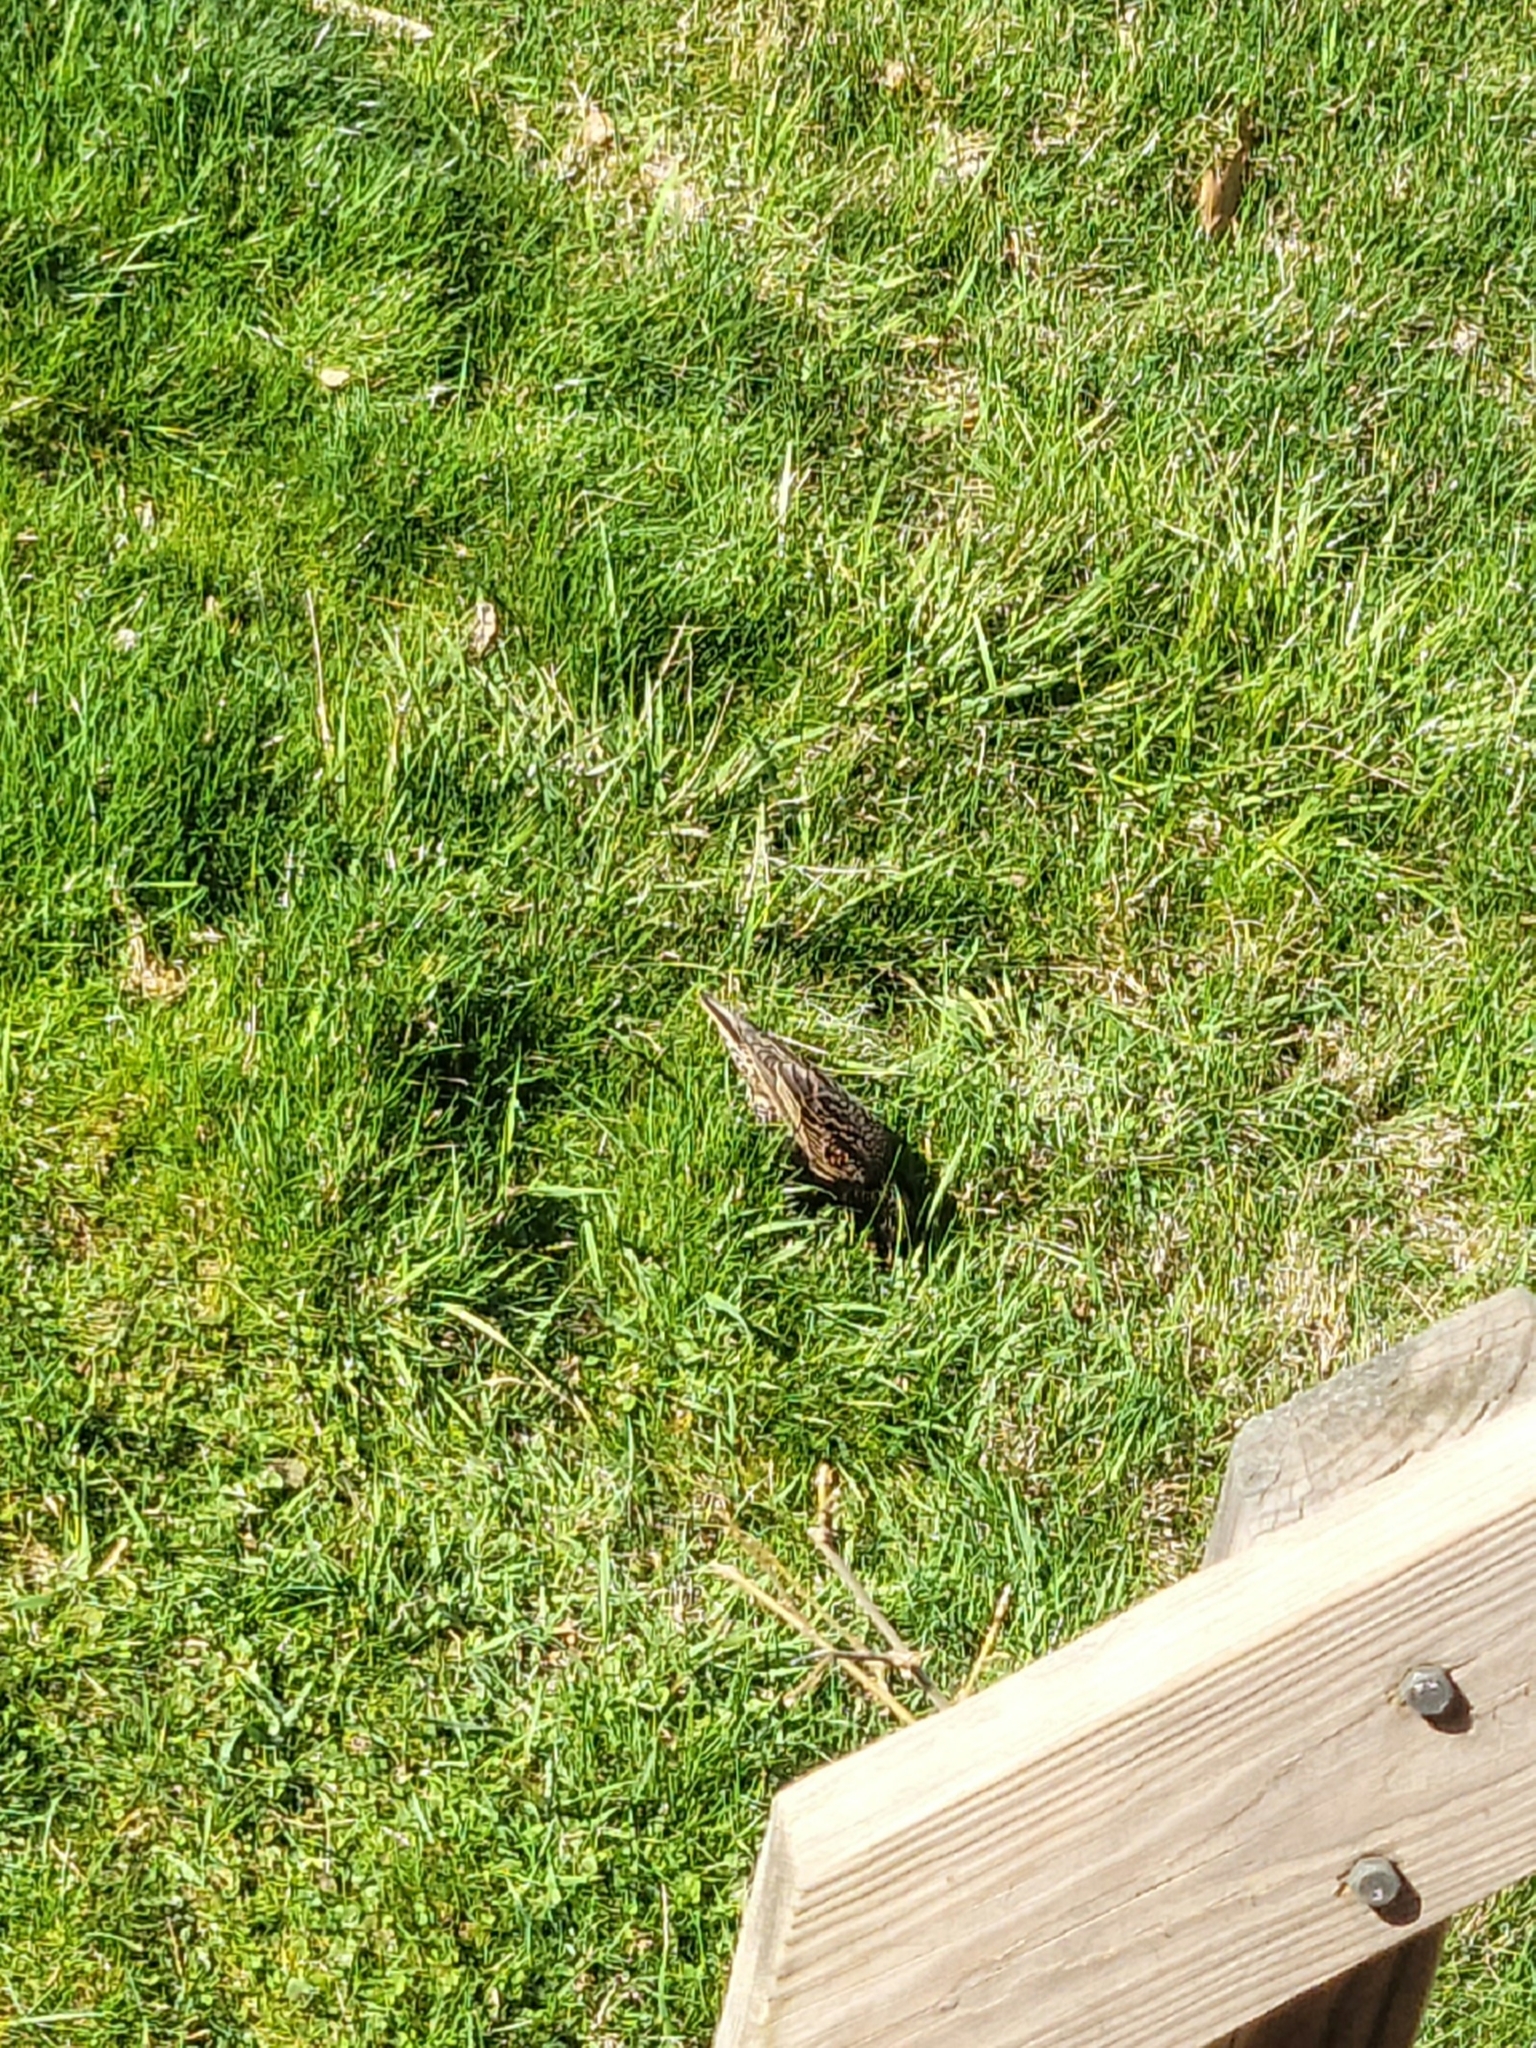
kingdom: Animalia
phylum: Chordata
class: Aves
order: Passeriformes
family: Sturnidae
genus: Sturnus
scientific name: Sturnus vulgaris
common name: Common starling
